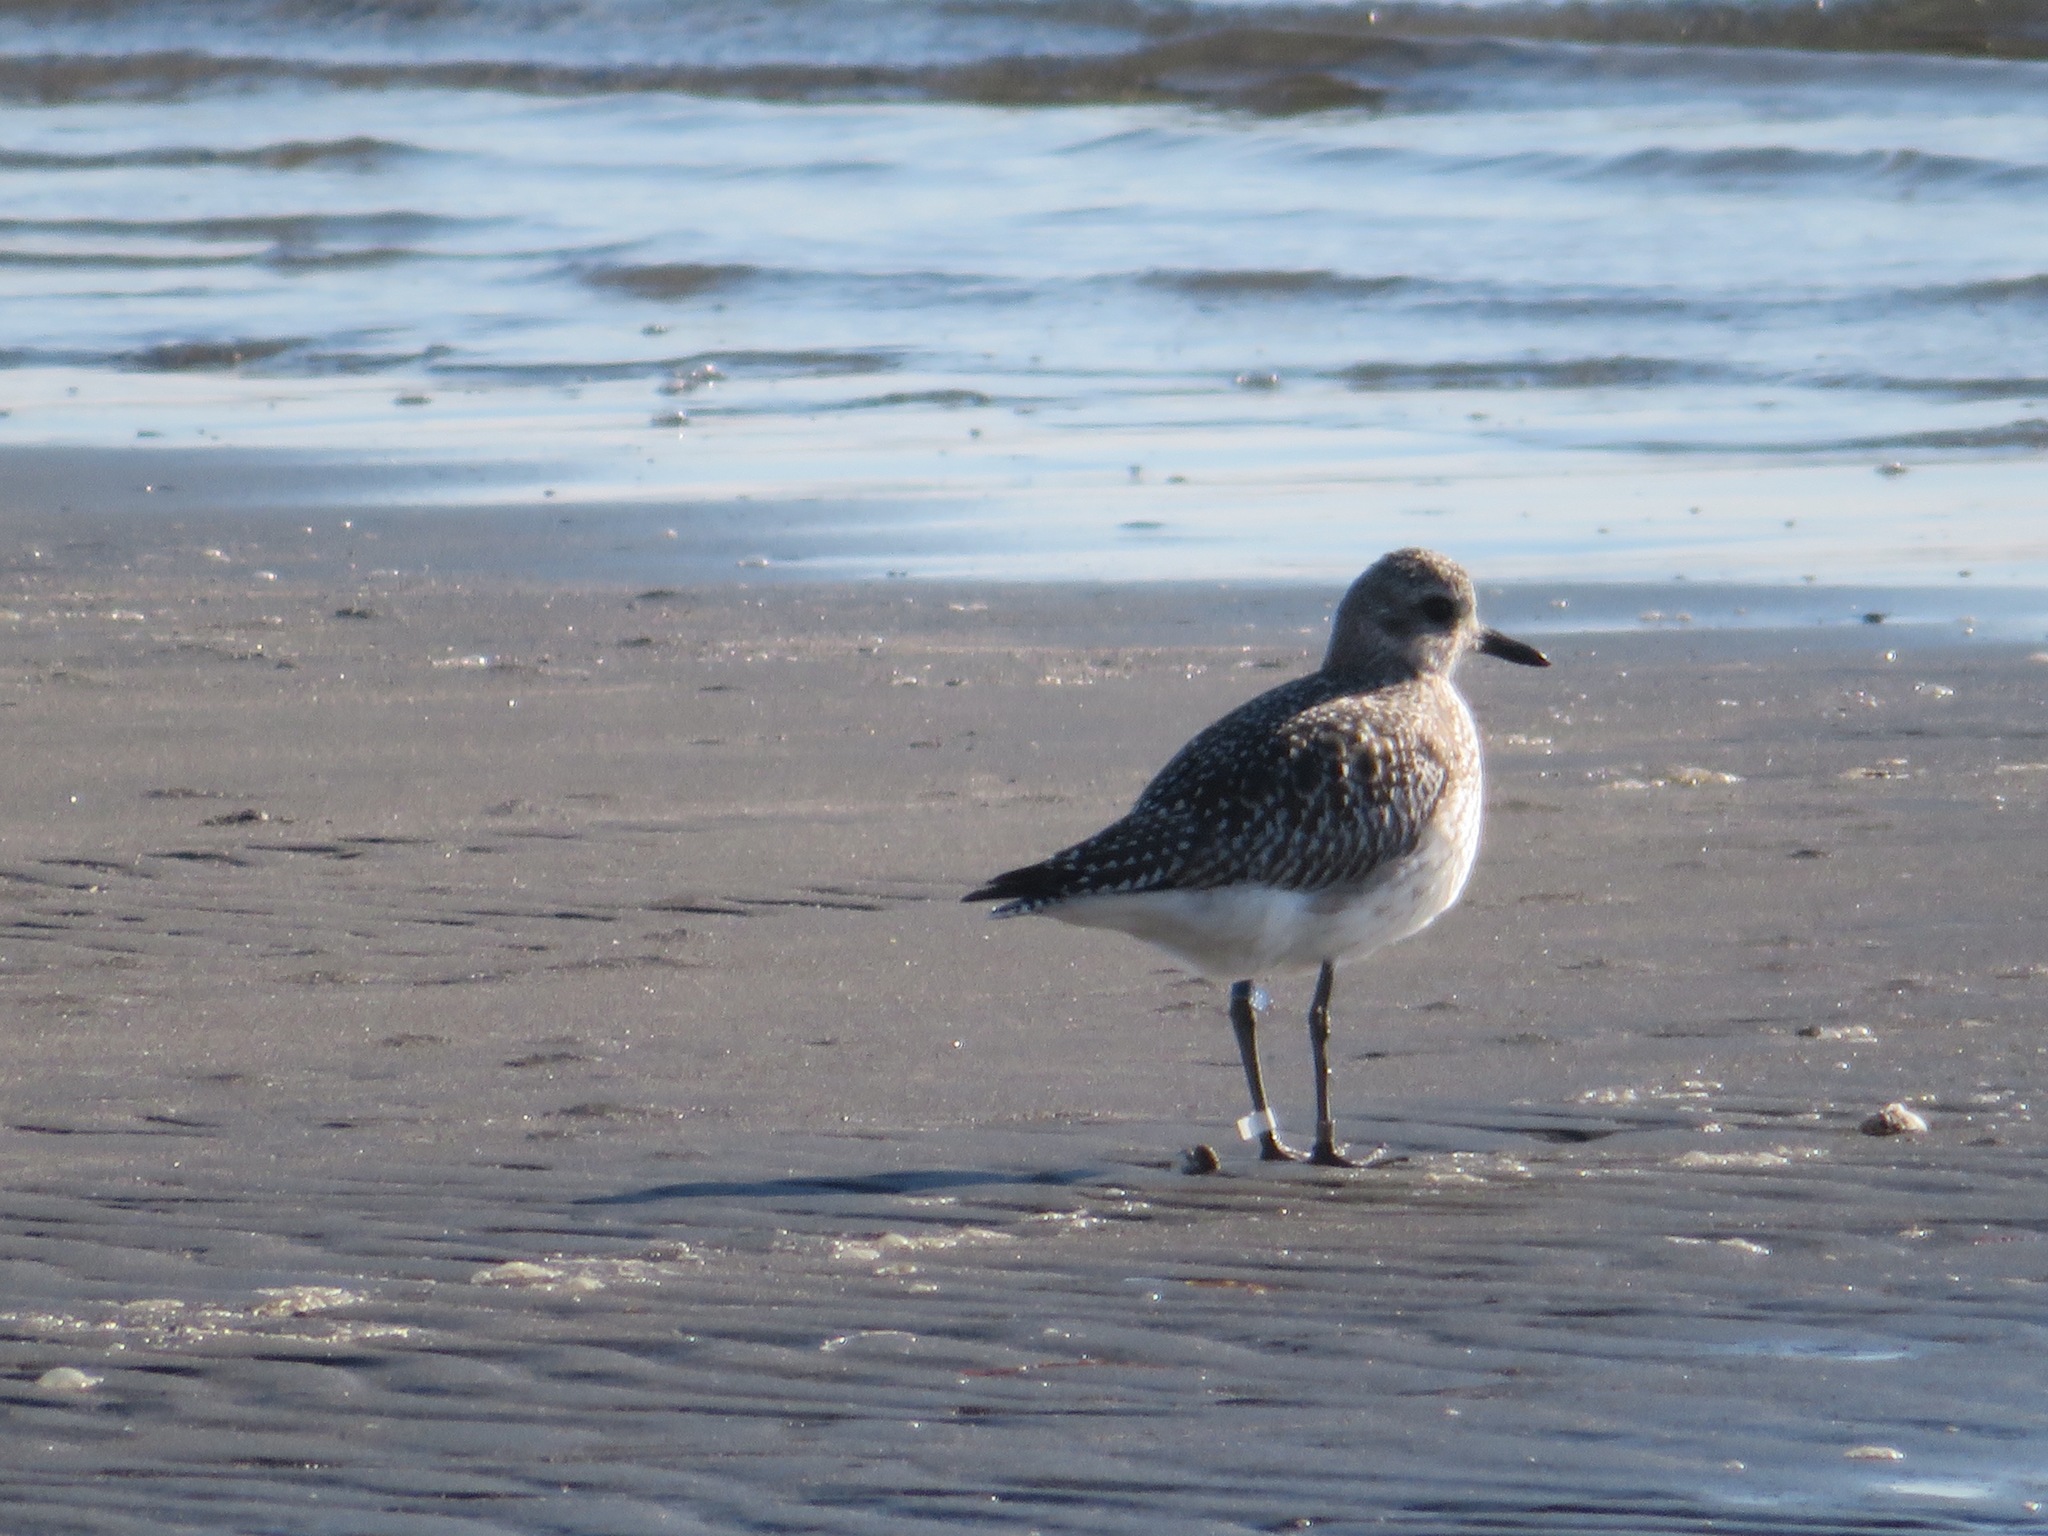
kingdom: Animalia
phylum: Chordata
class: Aves
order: Charadriiformes
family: Charadriidae
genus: Pluvialis
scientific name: Pluvialis squatarola
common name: Grey plover
